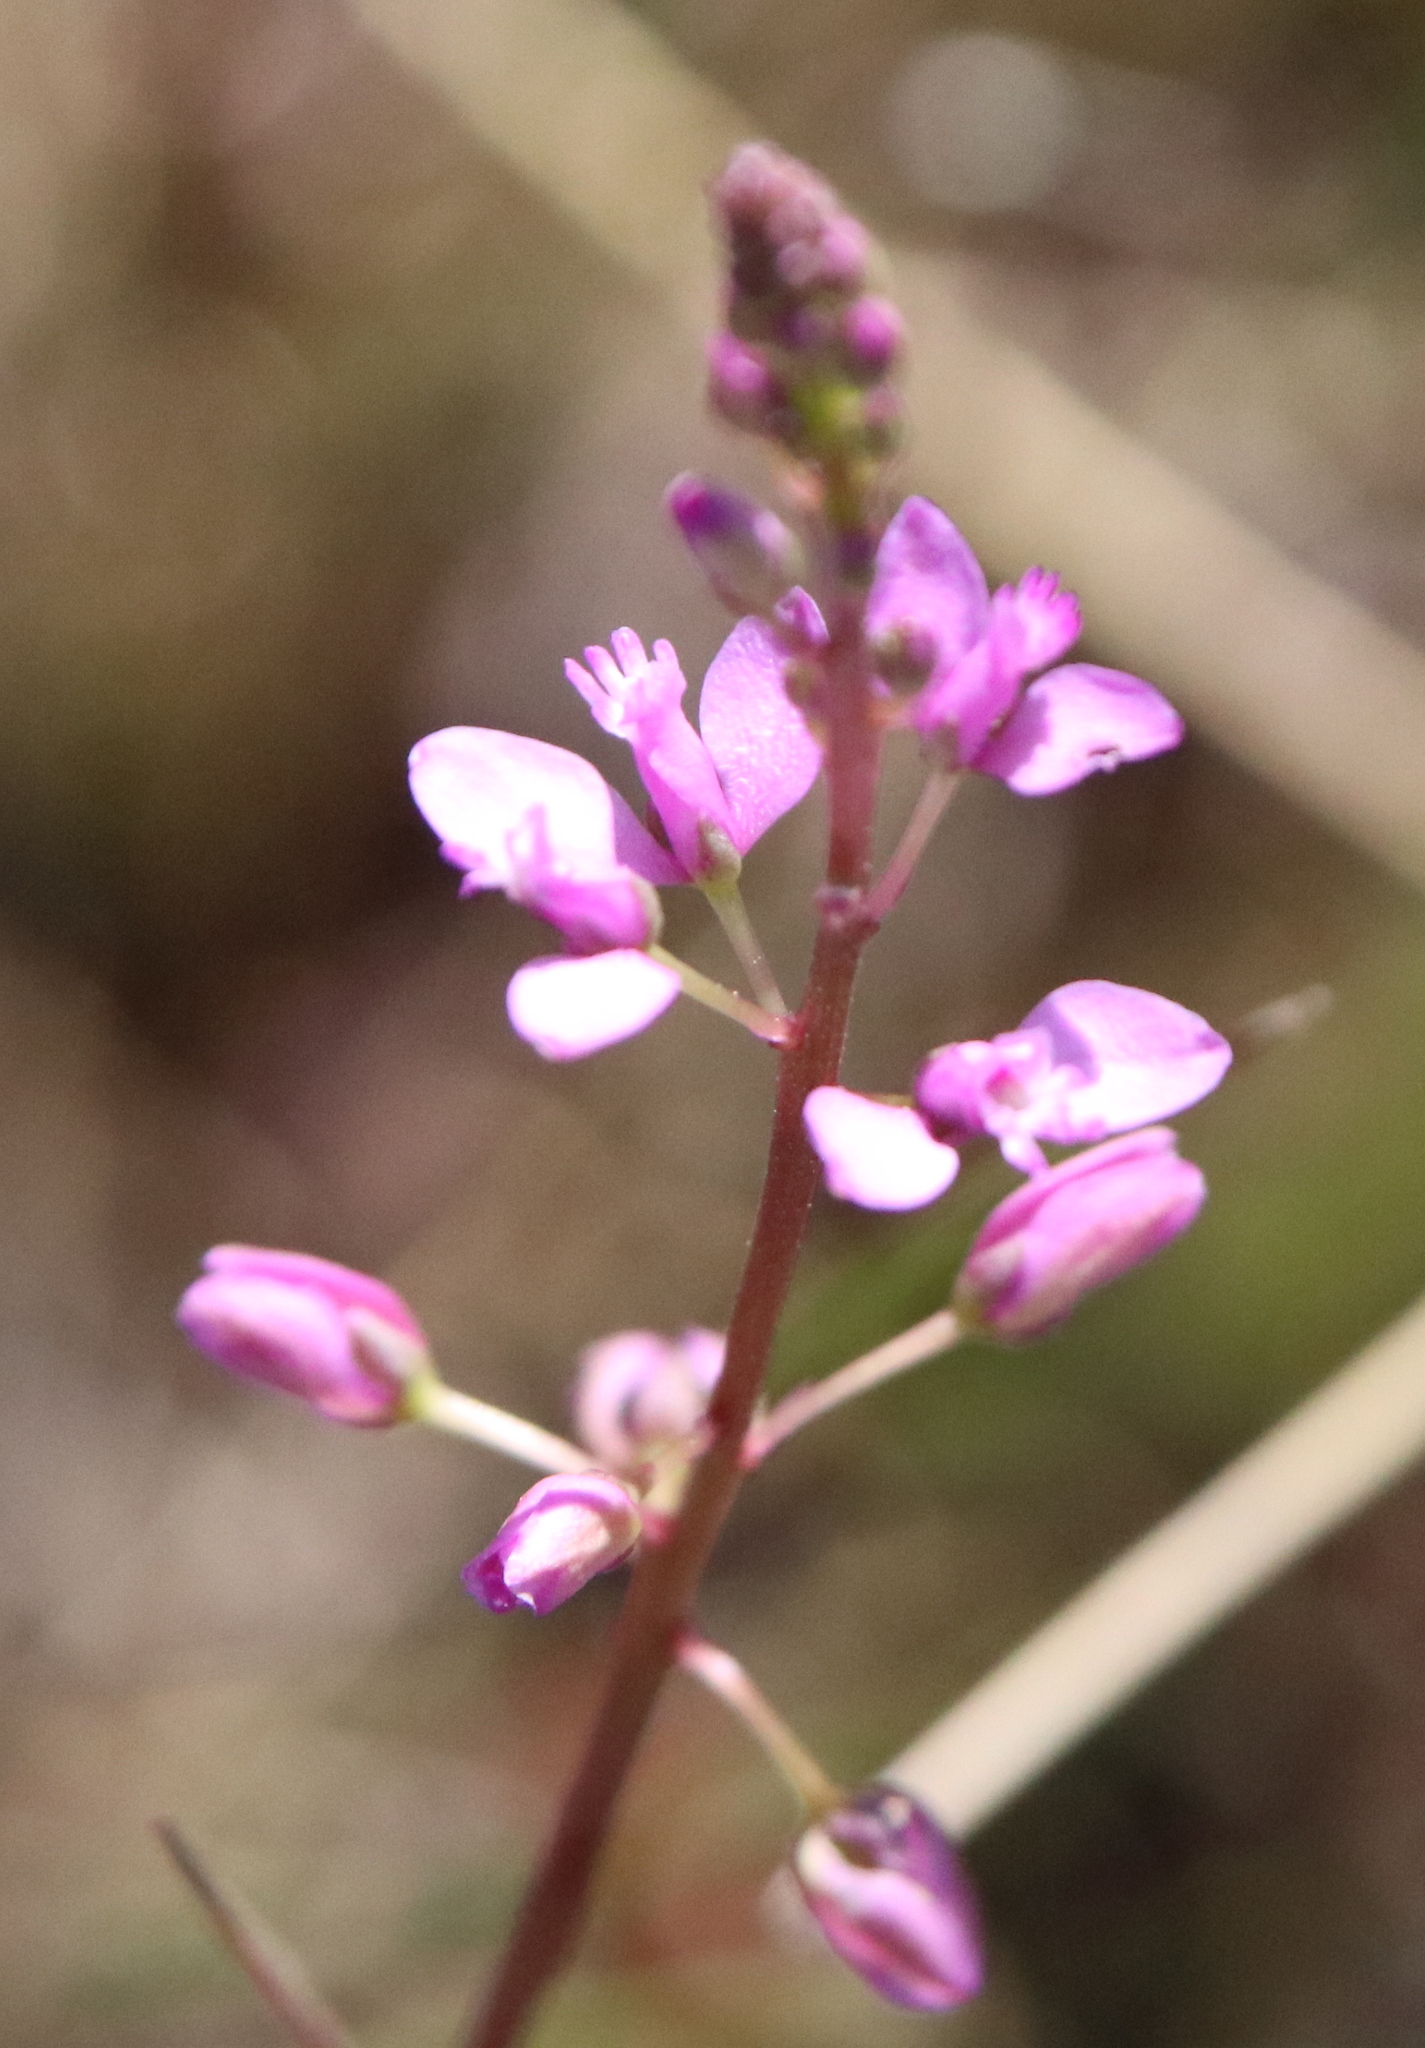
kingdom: Plantae
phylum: Tracheophyta
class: Magnoliopsida
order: Fabales
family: Polygalaceae
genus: Polygala
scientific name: Polygala crenata
